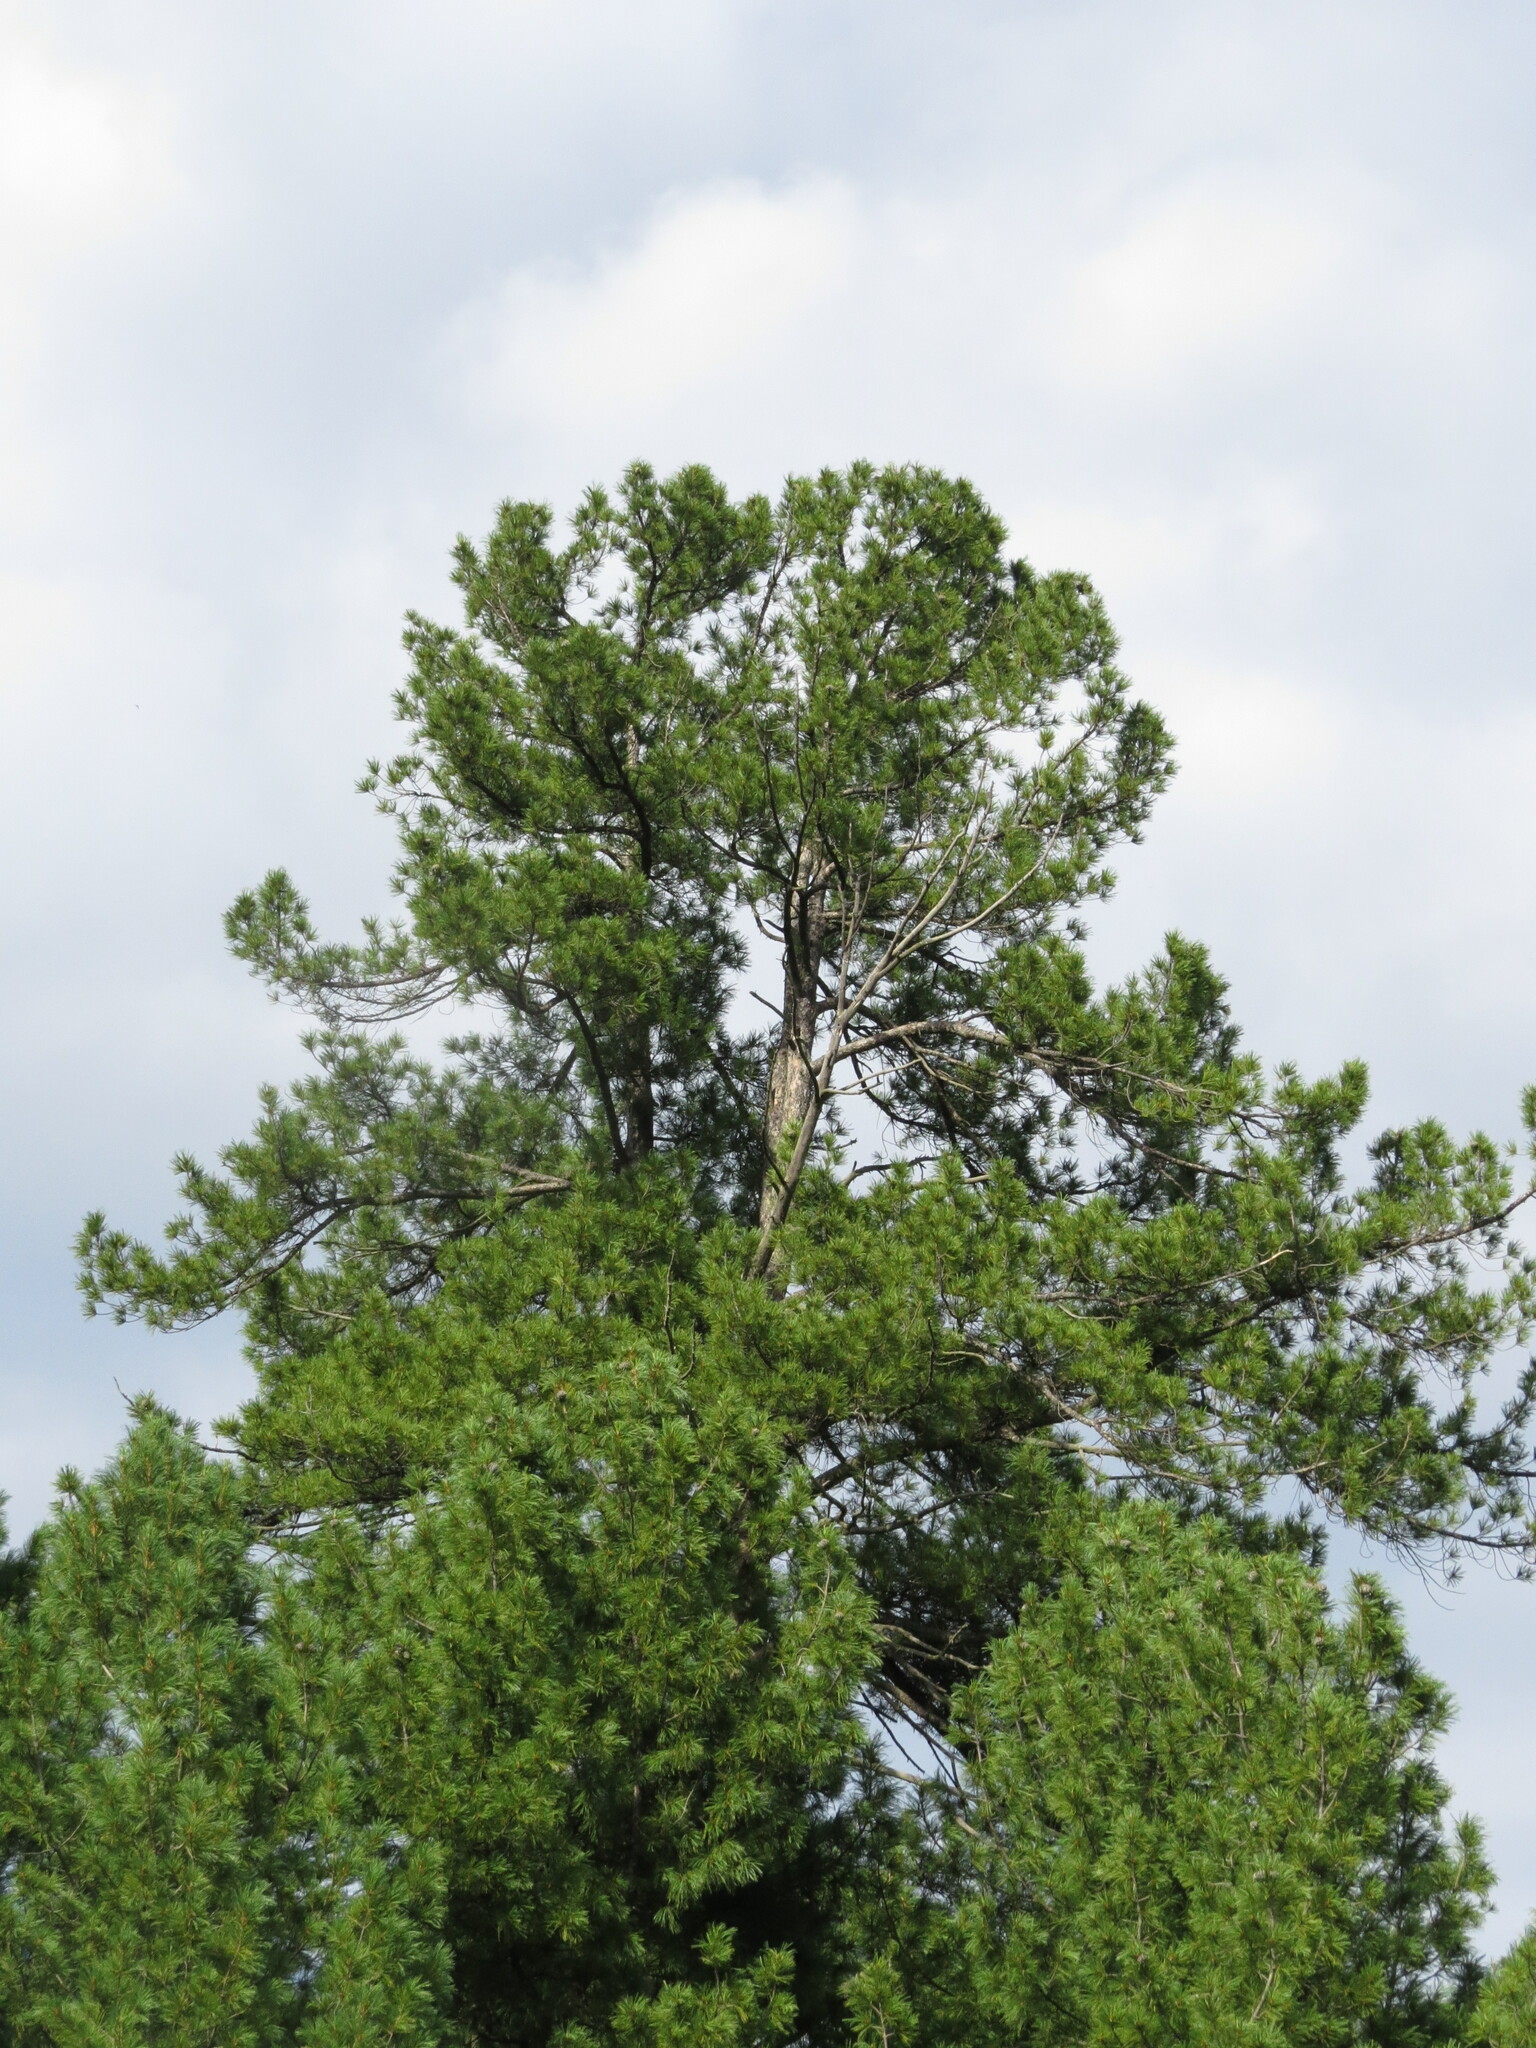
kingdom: Plantae
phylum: Tracheophyta
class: Pinopsida
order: Pinales
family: Pinaceae
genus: Pinus
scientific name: Pinus sibirica
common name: Siberian pine
